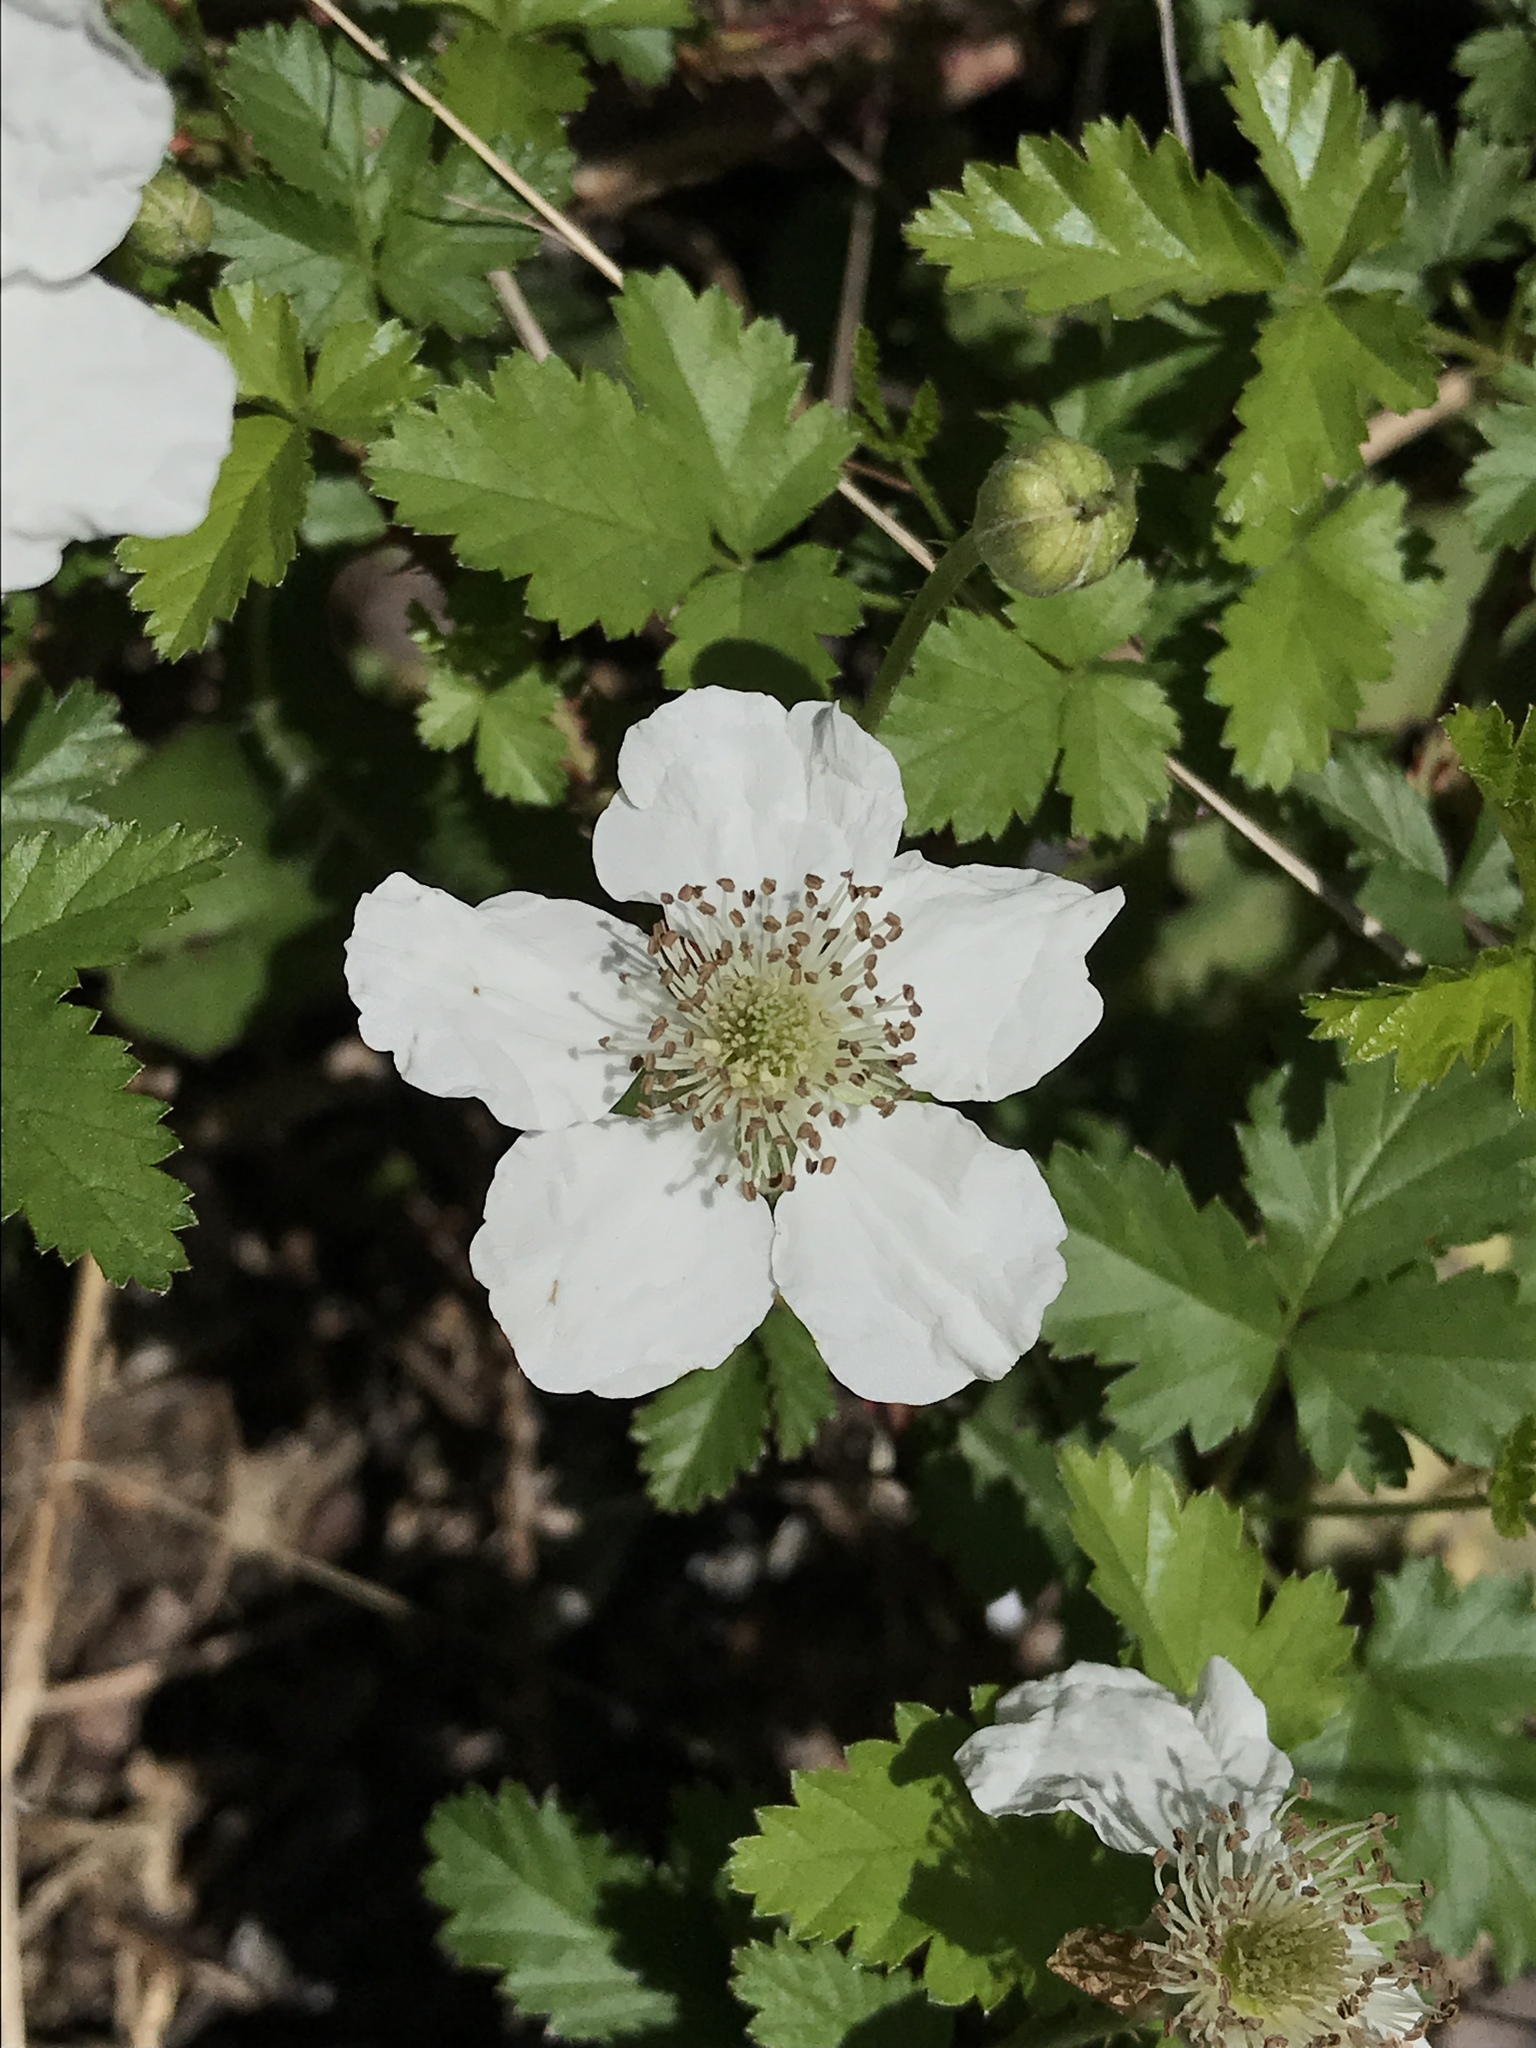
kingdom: Plantae
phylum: Tracheophyta
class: Magnoliopsida
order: Rosales
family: Rosaceae
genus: Rubus
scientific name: Rubus trivialis
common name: Southern dewberry
